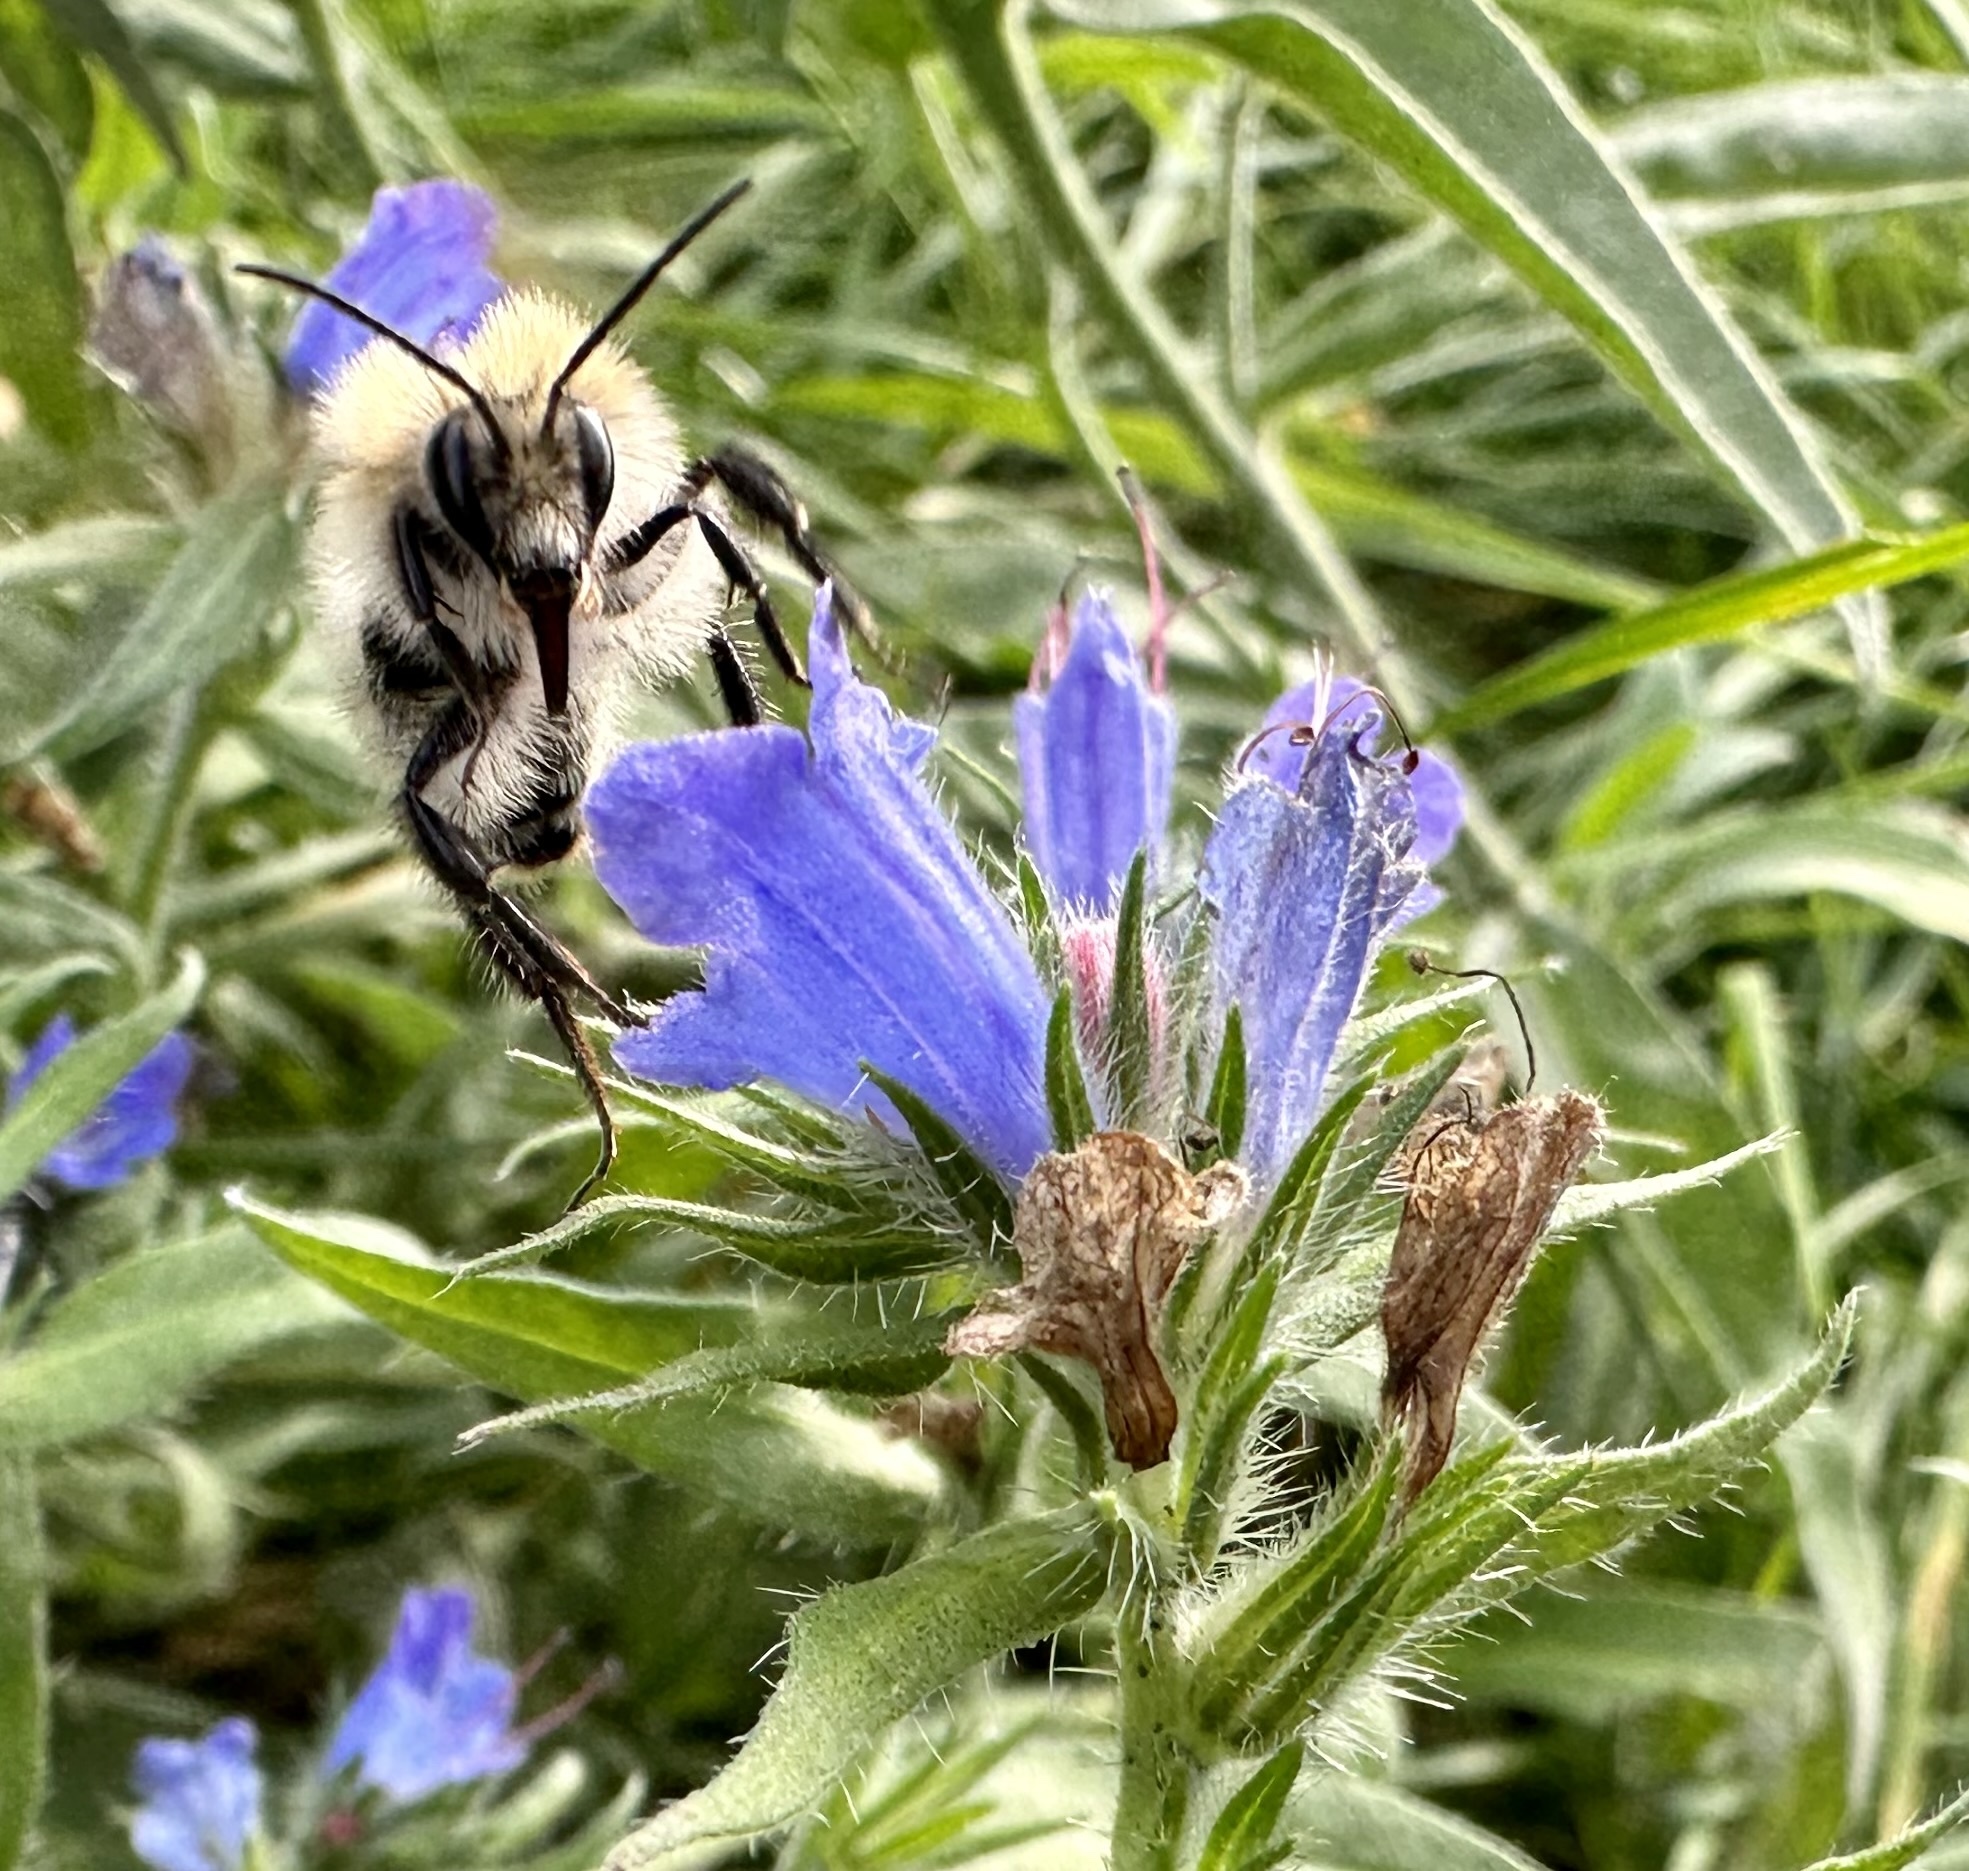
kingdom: Animalia
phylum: Arthropoda
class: Insecta
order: Hymenoptera
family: Apidae
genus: Bombus
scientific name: Bombus pascuorum
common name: Common carder bee
